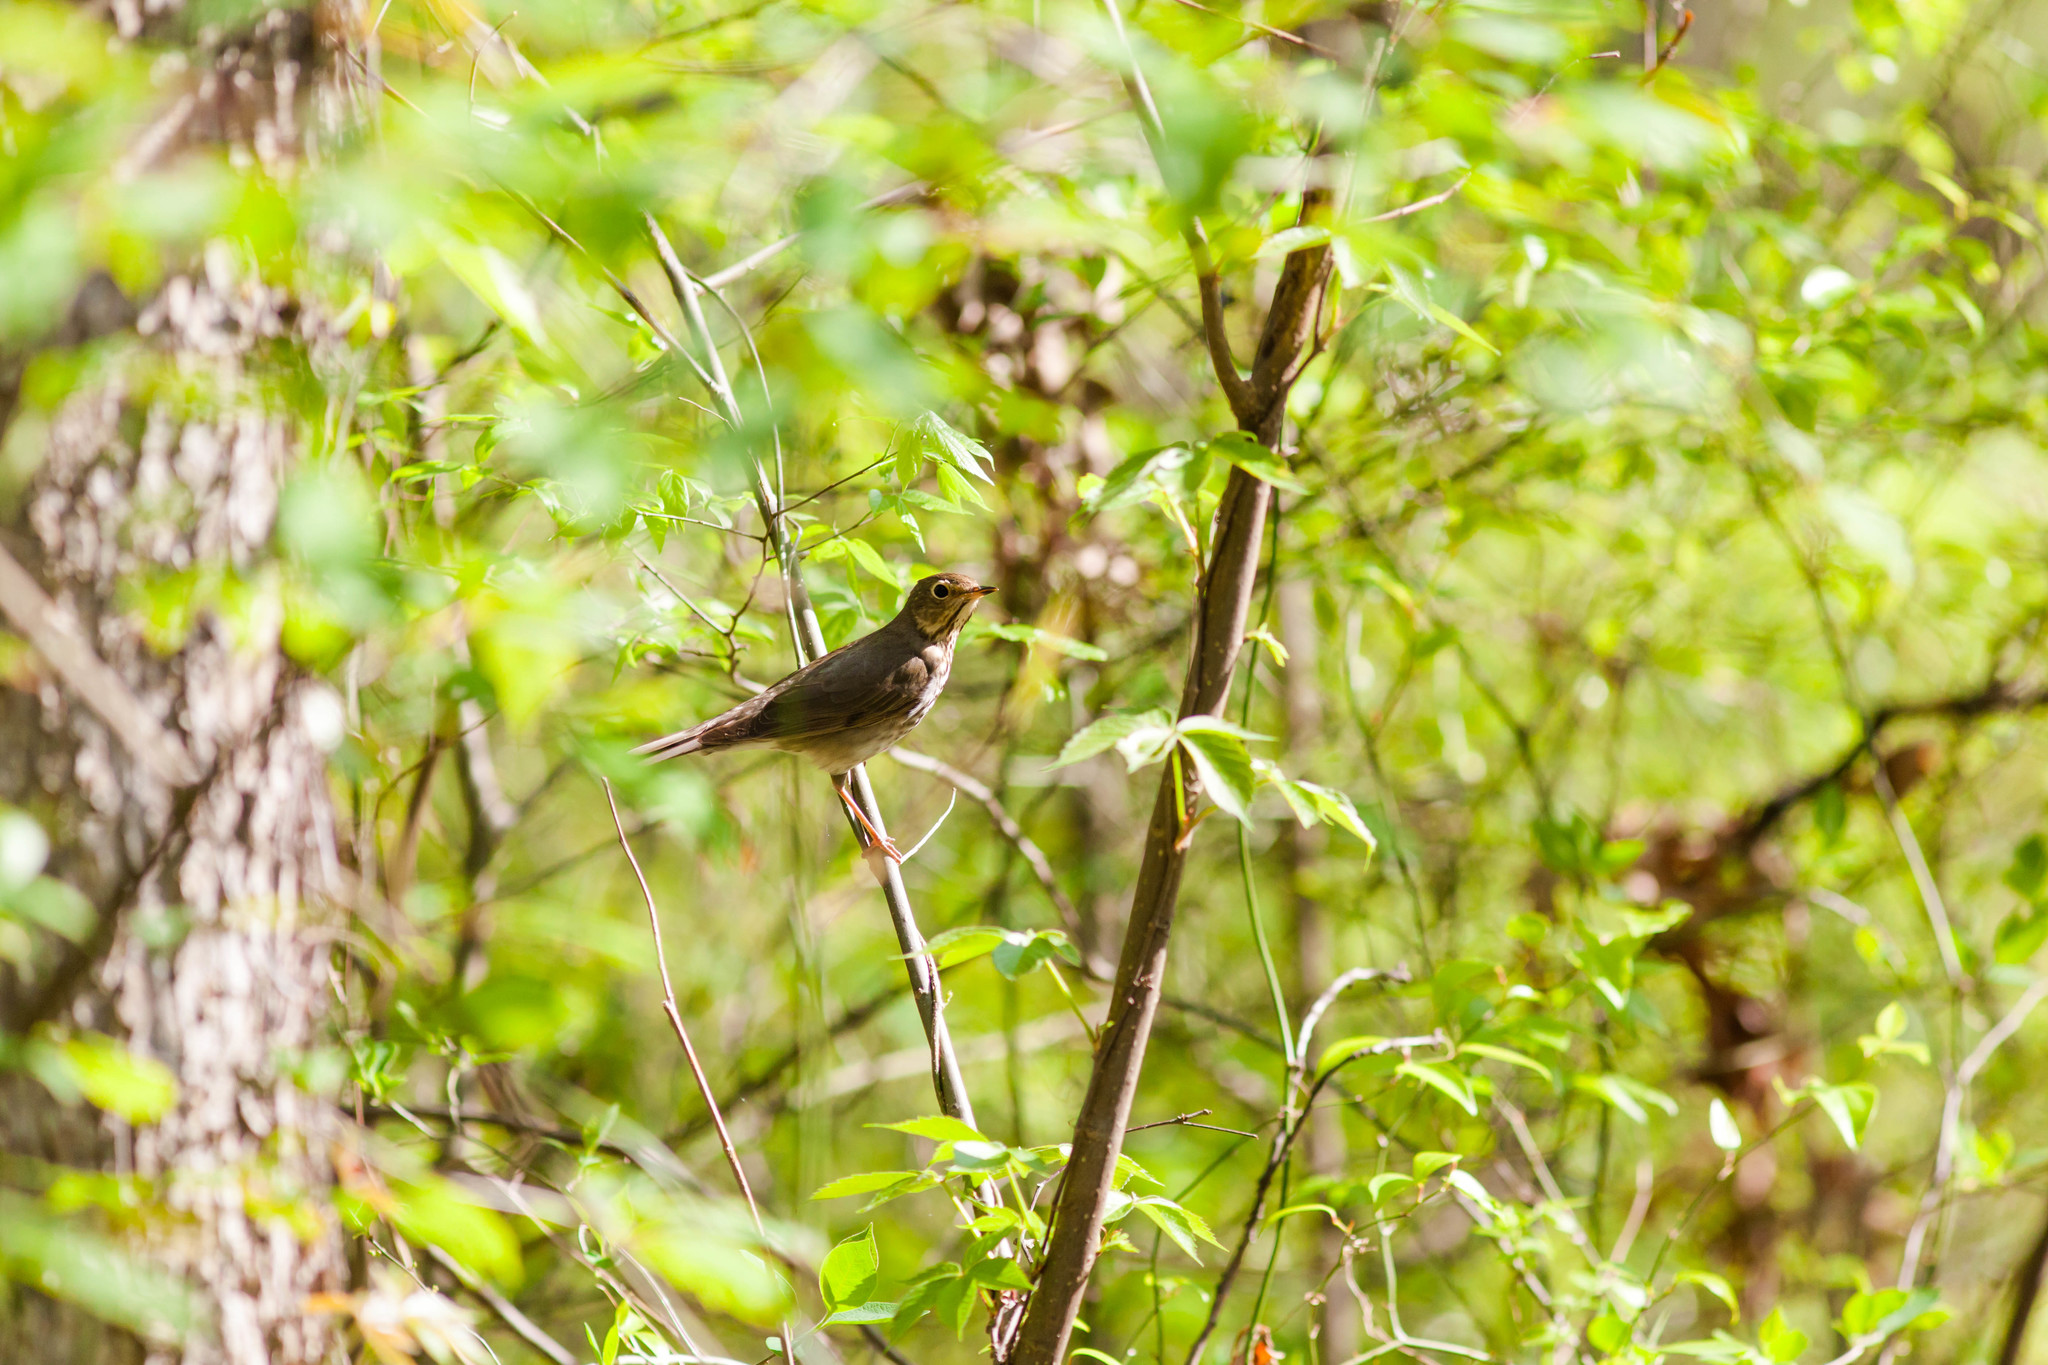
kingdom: Animalia
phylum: Chordata
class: Aves
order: Passeriformes
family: Turdidae
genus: Catharus
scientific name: Catharus ustulatus
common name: Swainson's thrush
